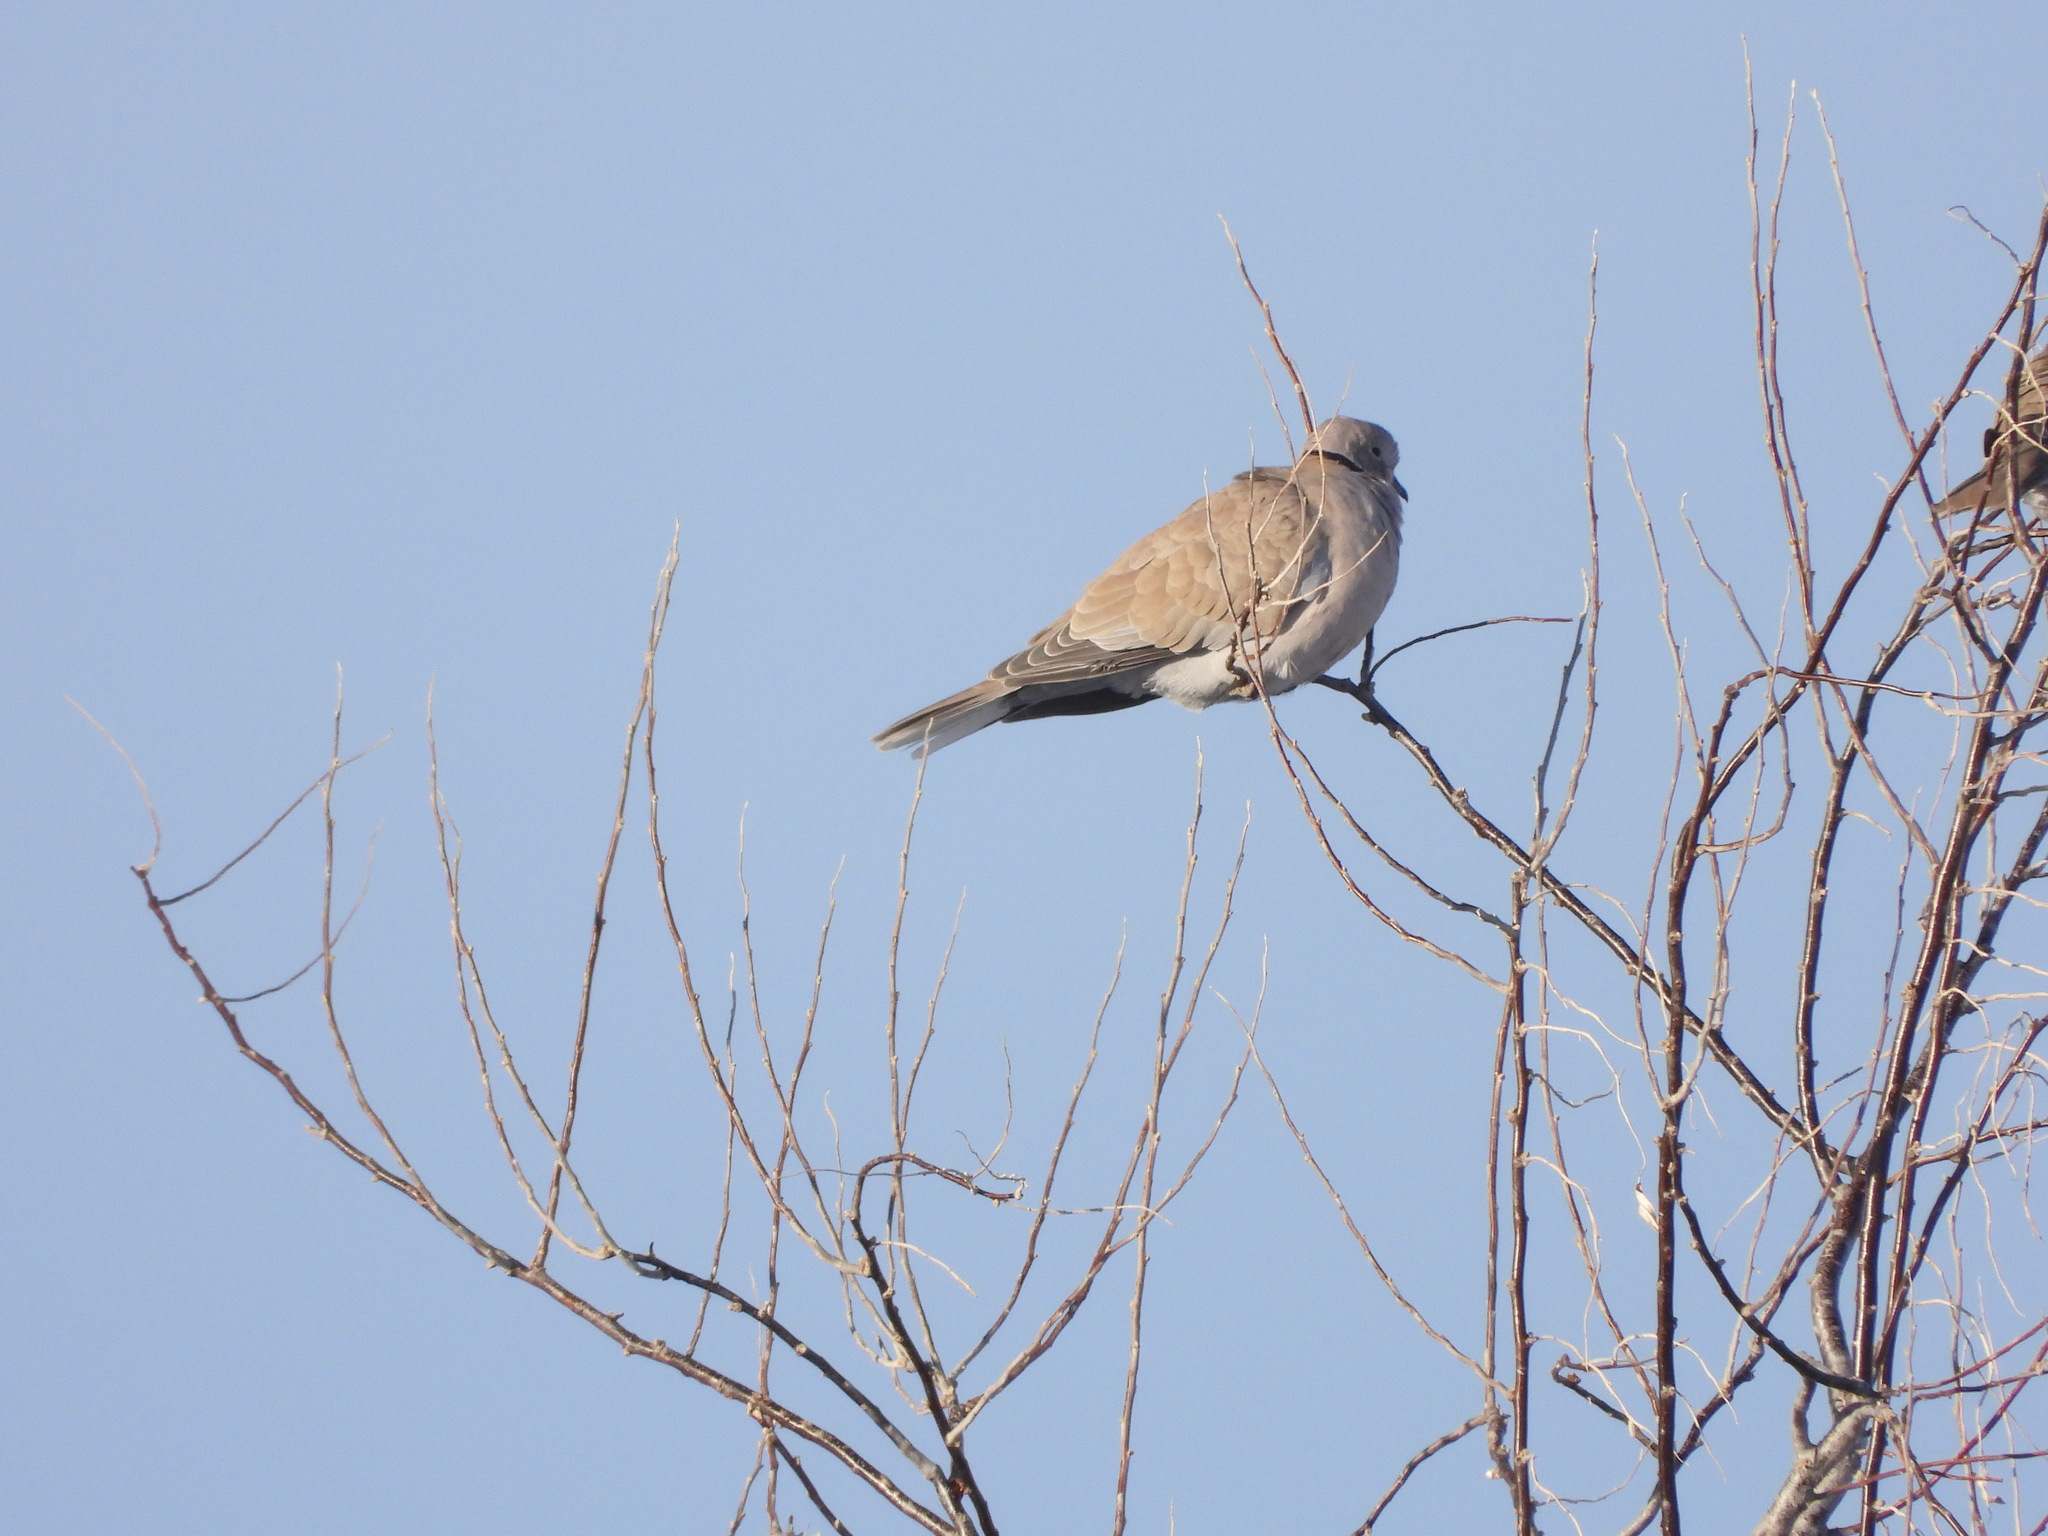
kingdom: Animalia
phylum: Chordata
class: Aves
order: Columbiformes
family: Columbidae
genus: Streptopelia
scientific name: Streptopelia decaocto
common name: Eurasian collared dove
